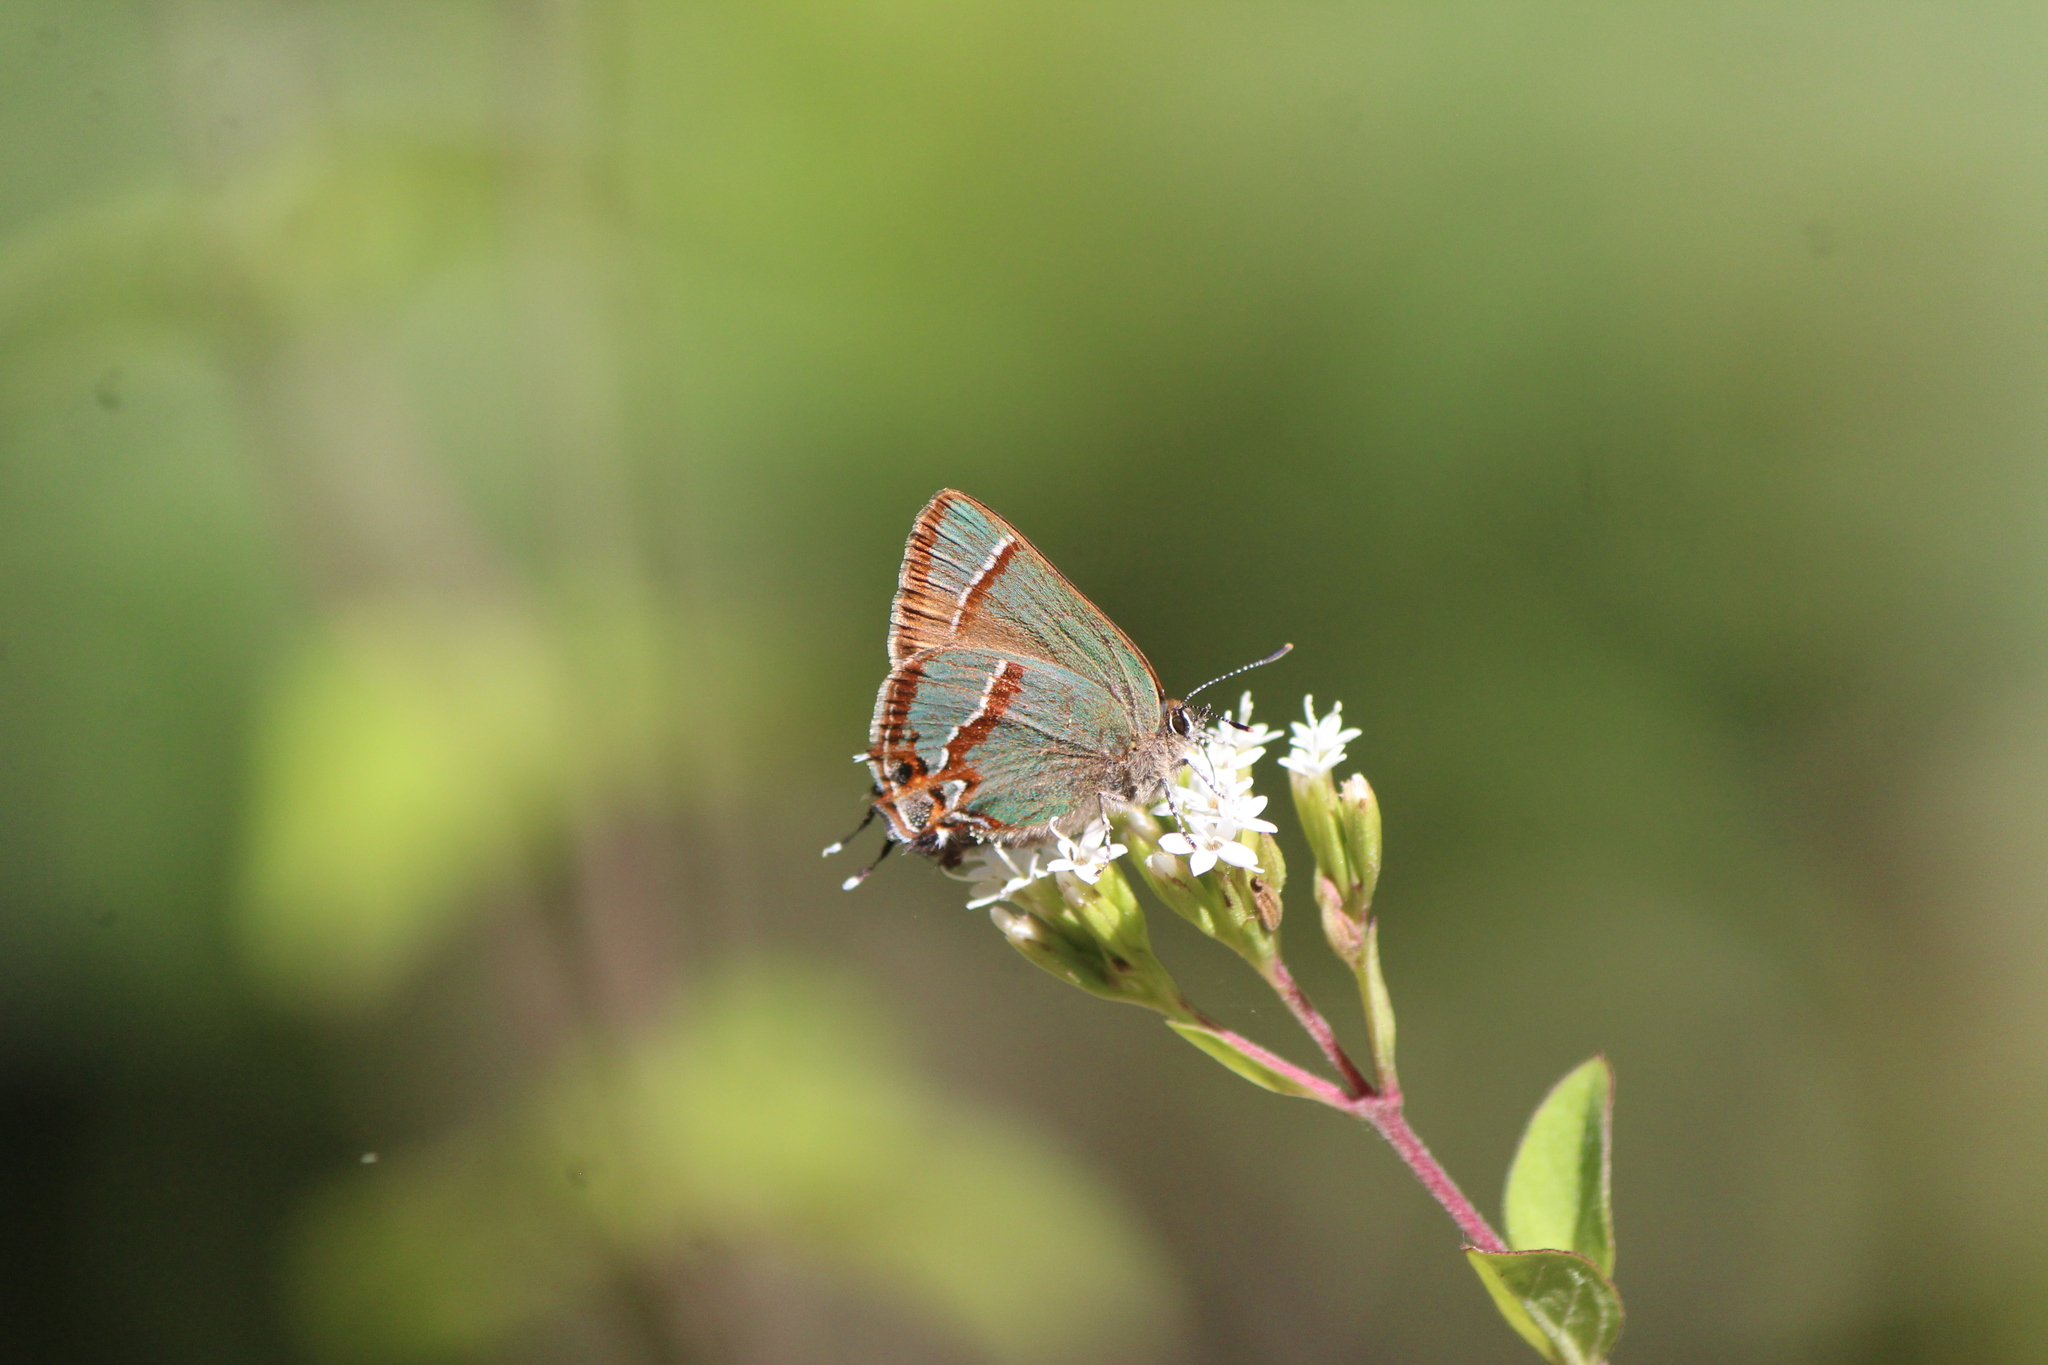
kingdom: Animalia
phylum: Arthropoda
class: Insecta
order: Lepidoptera
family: Lycaenidae
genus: Callophrys
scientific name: Callophrys
